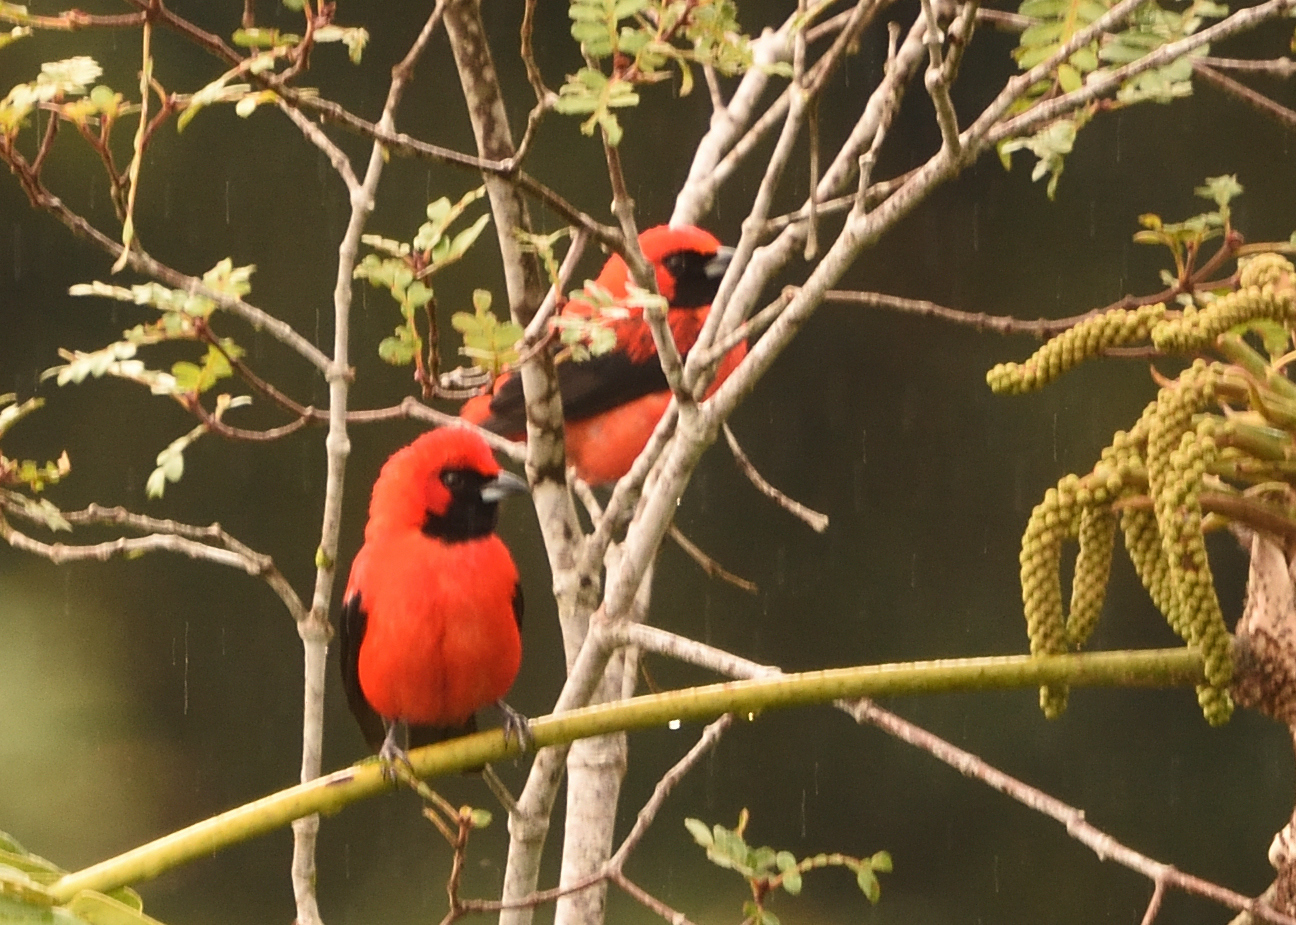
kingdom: Animalia
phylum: Chordata
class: Aves
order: Passeriformes
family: Thraupidae
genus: Calochaetes
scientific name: Calochaetes coccineus
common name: Vermilion tanager
